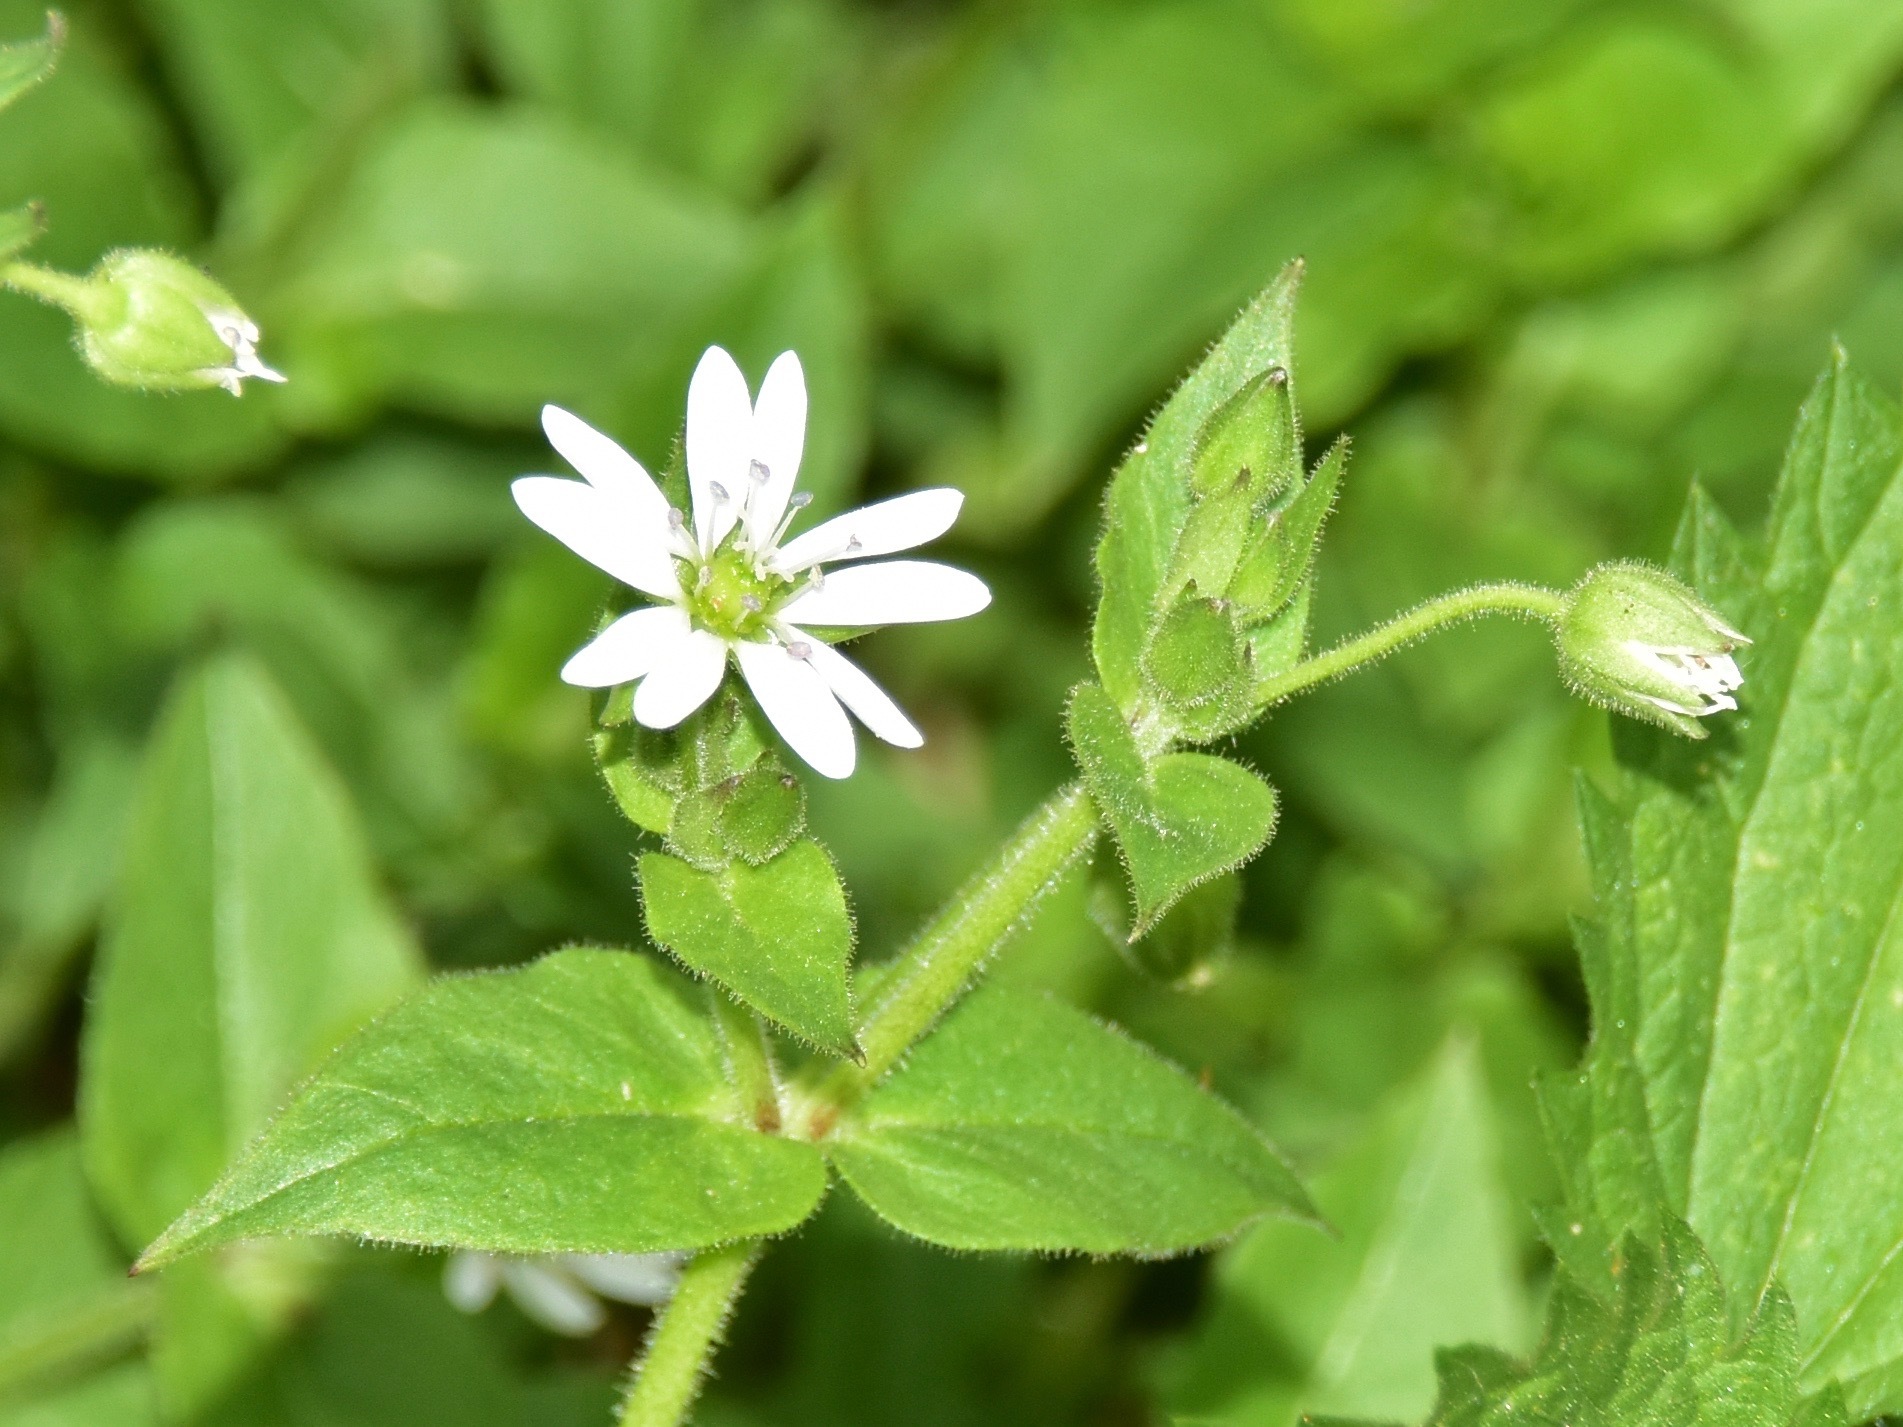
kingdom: Plantae
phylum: Tracheophyta
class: Magnoliopsida
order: Caryophyllales
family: Caryophyllaceae
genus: Stellaria
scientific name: Stellaria aquatica
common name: Water chickweed
